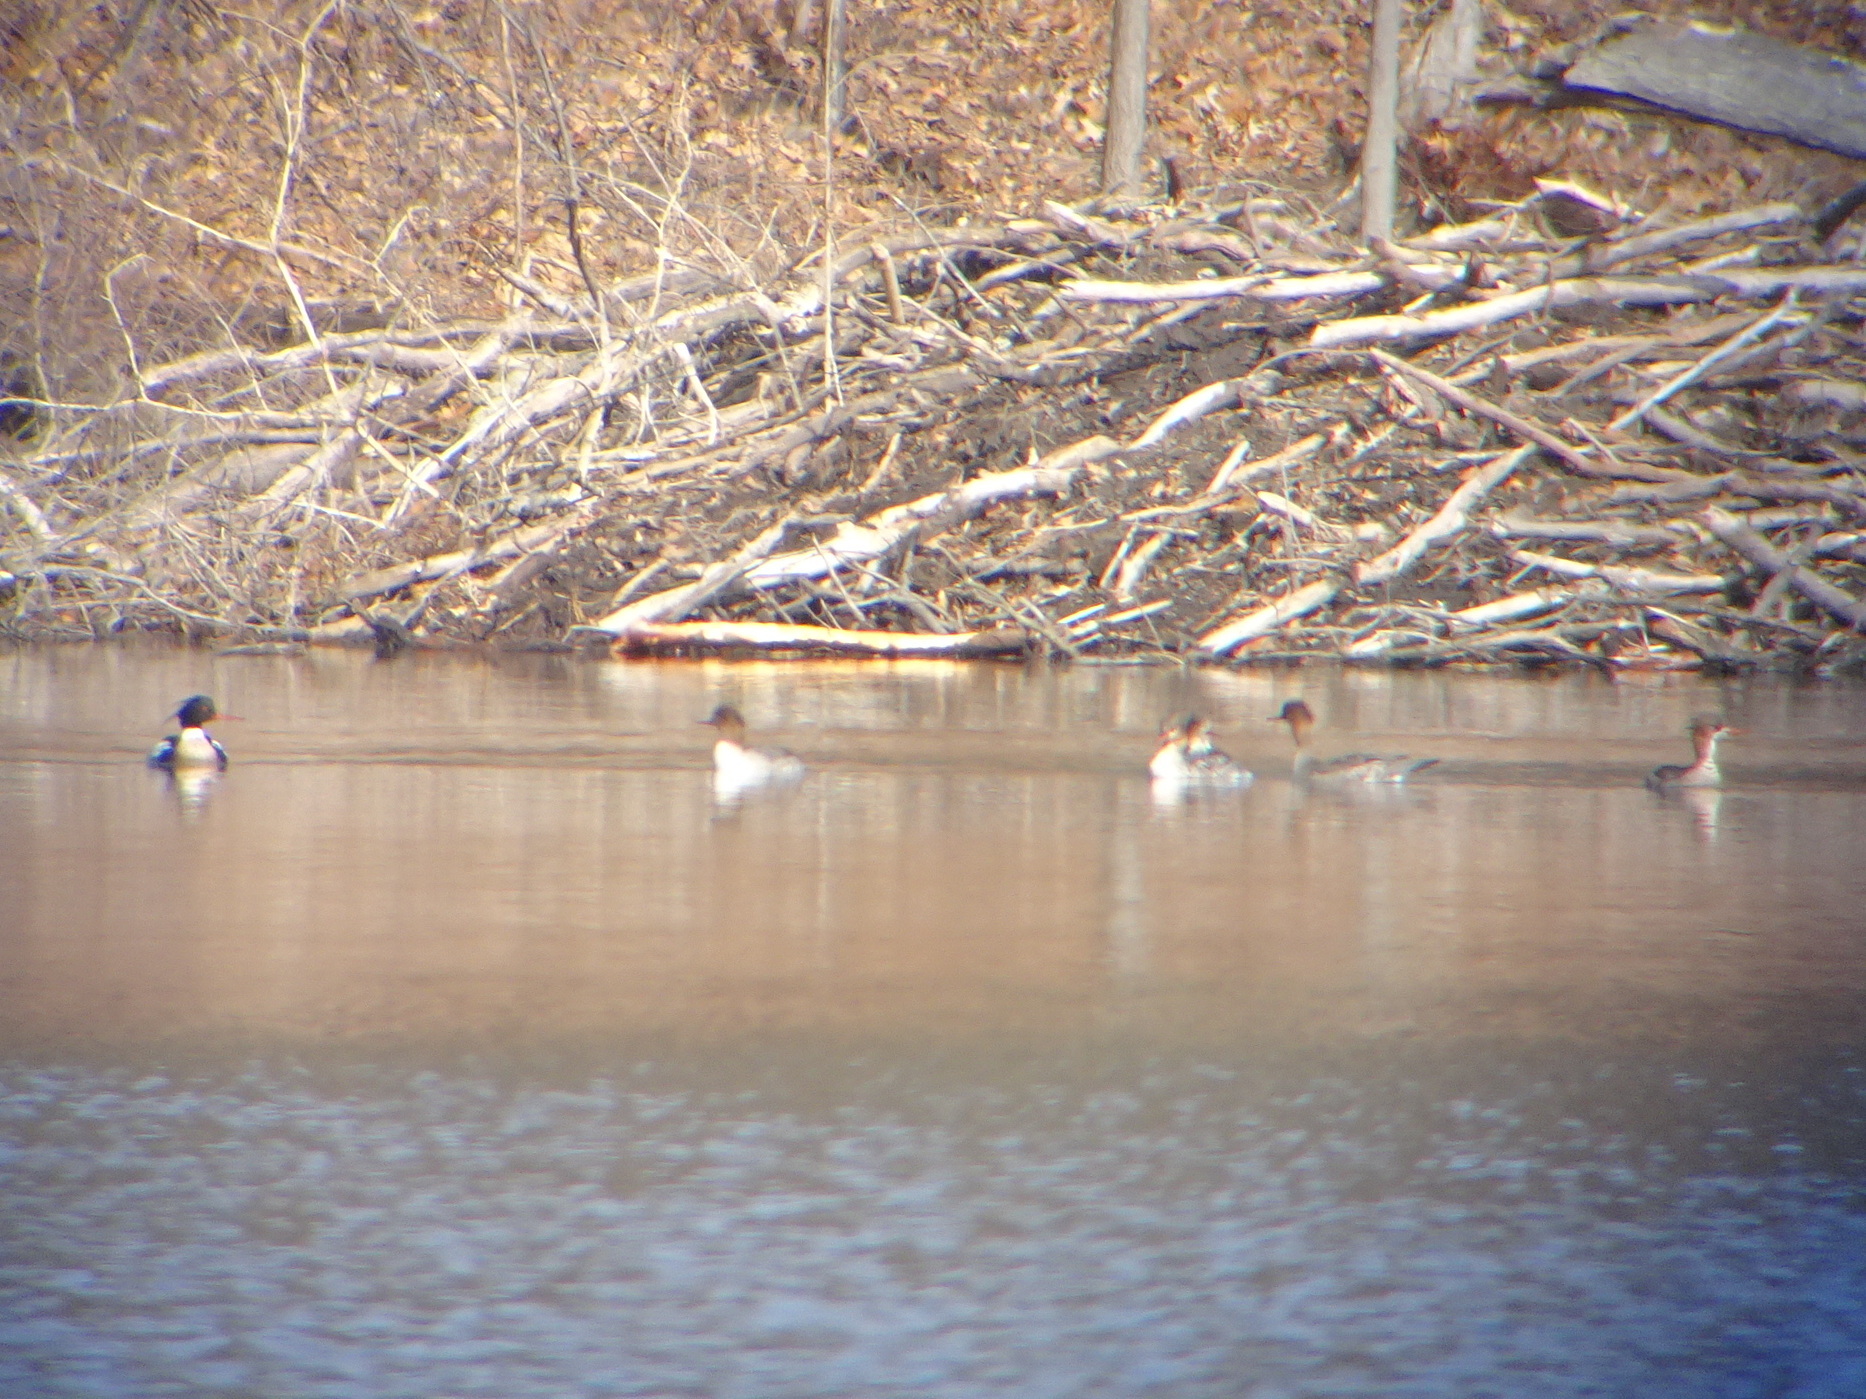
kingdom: Animalia
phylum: Chordata
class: Aves
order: Anseriformes
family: Anatidae
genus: Mergus
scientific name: Mergus serrator
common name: Red-breasted merganser
